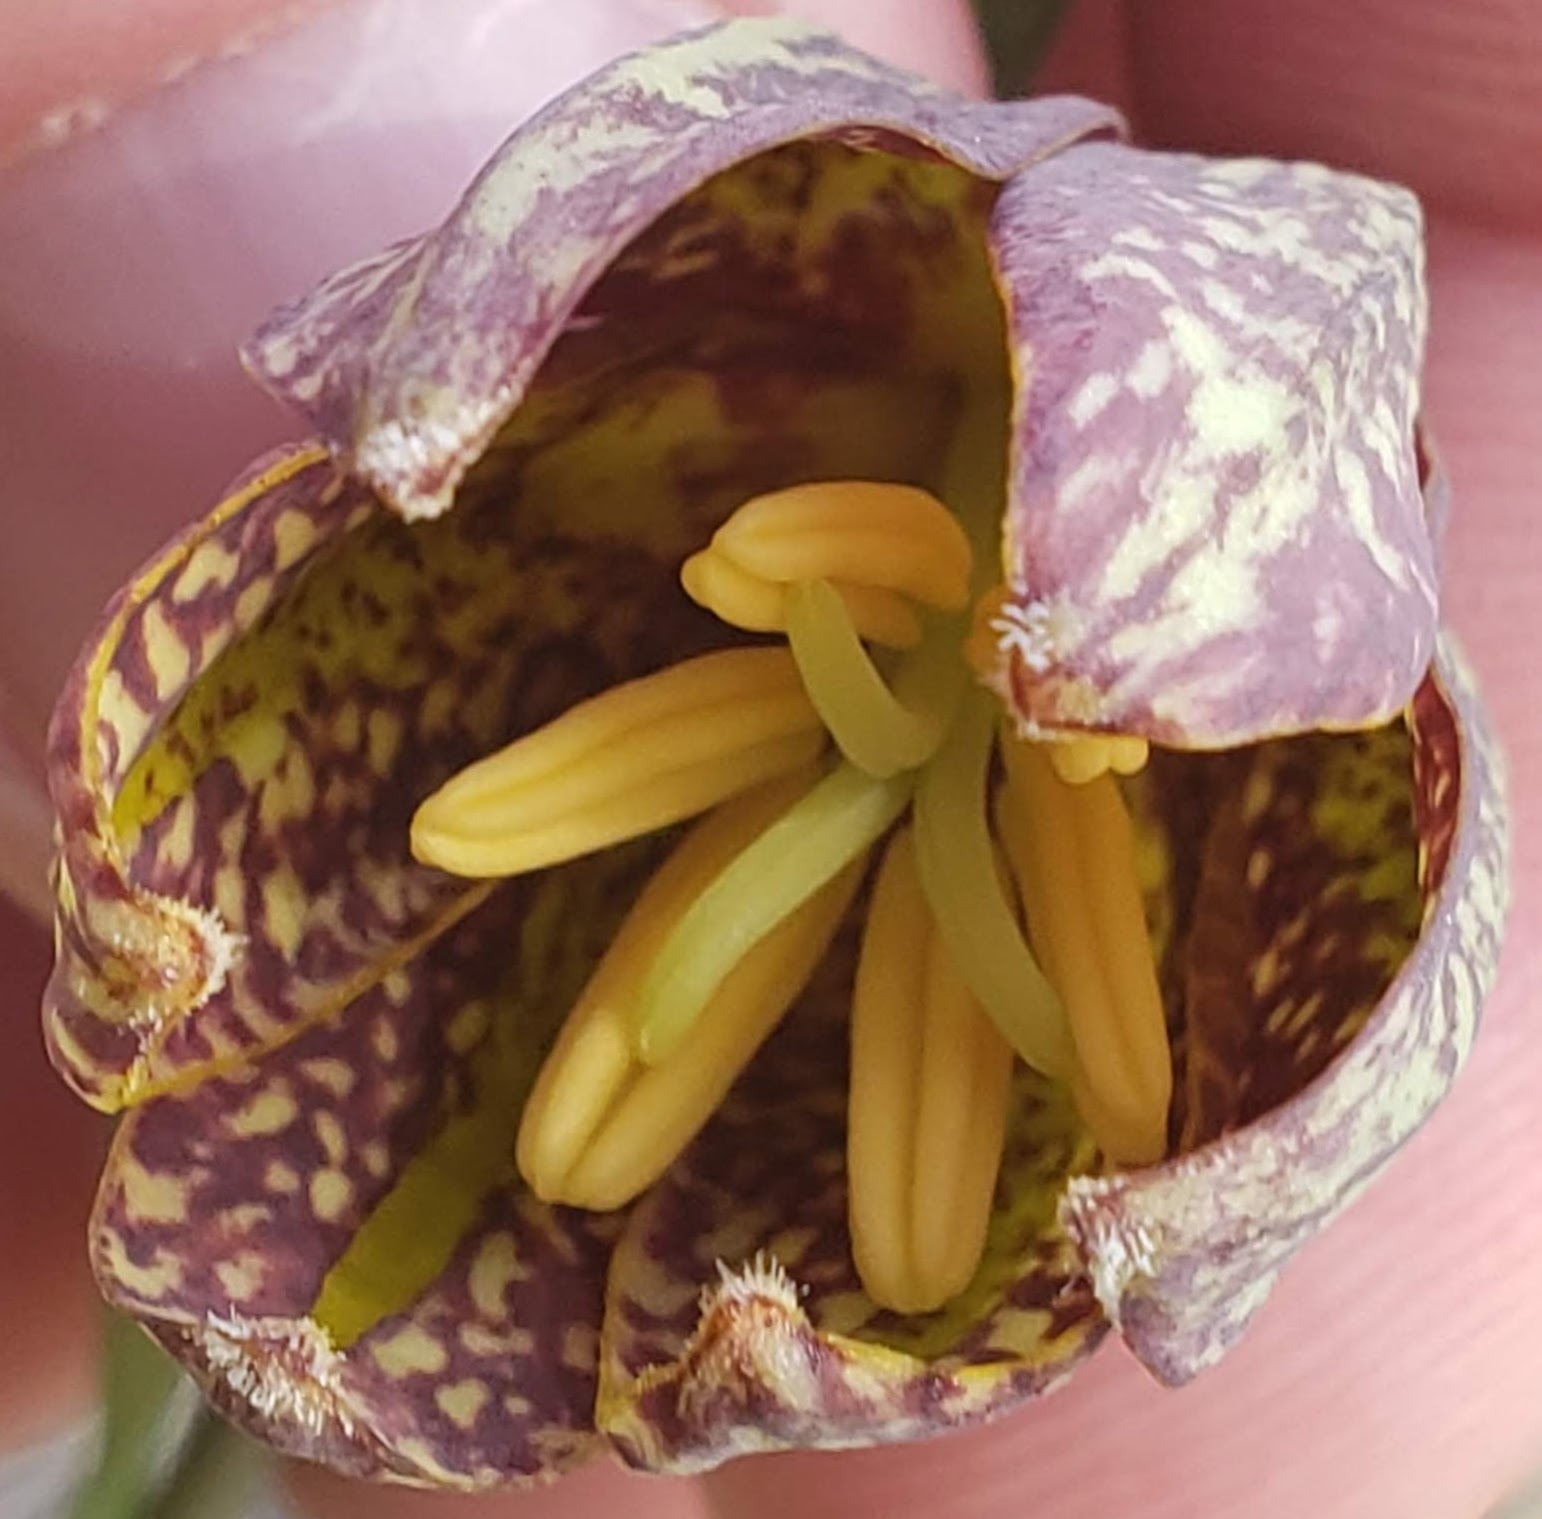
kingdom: Plantae
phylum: Tracheophyta
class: Liliopsida
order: Liliales
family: Liliaceae
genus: Fritillaria
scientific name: Fritillaria affinis
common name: Ojai fritillary
